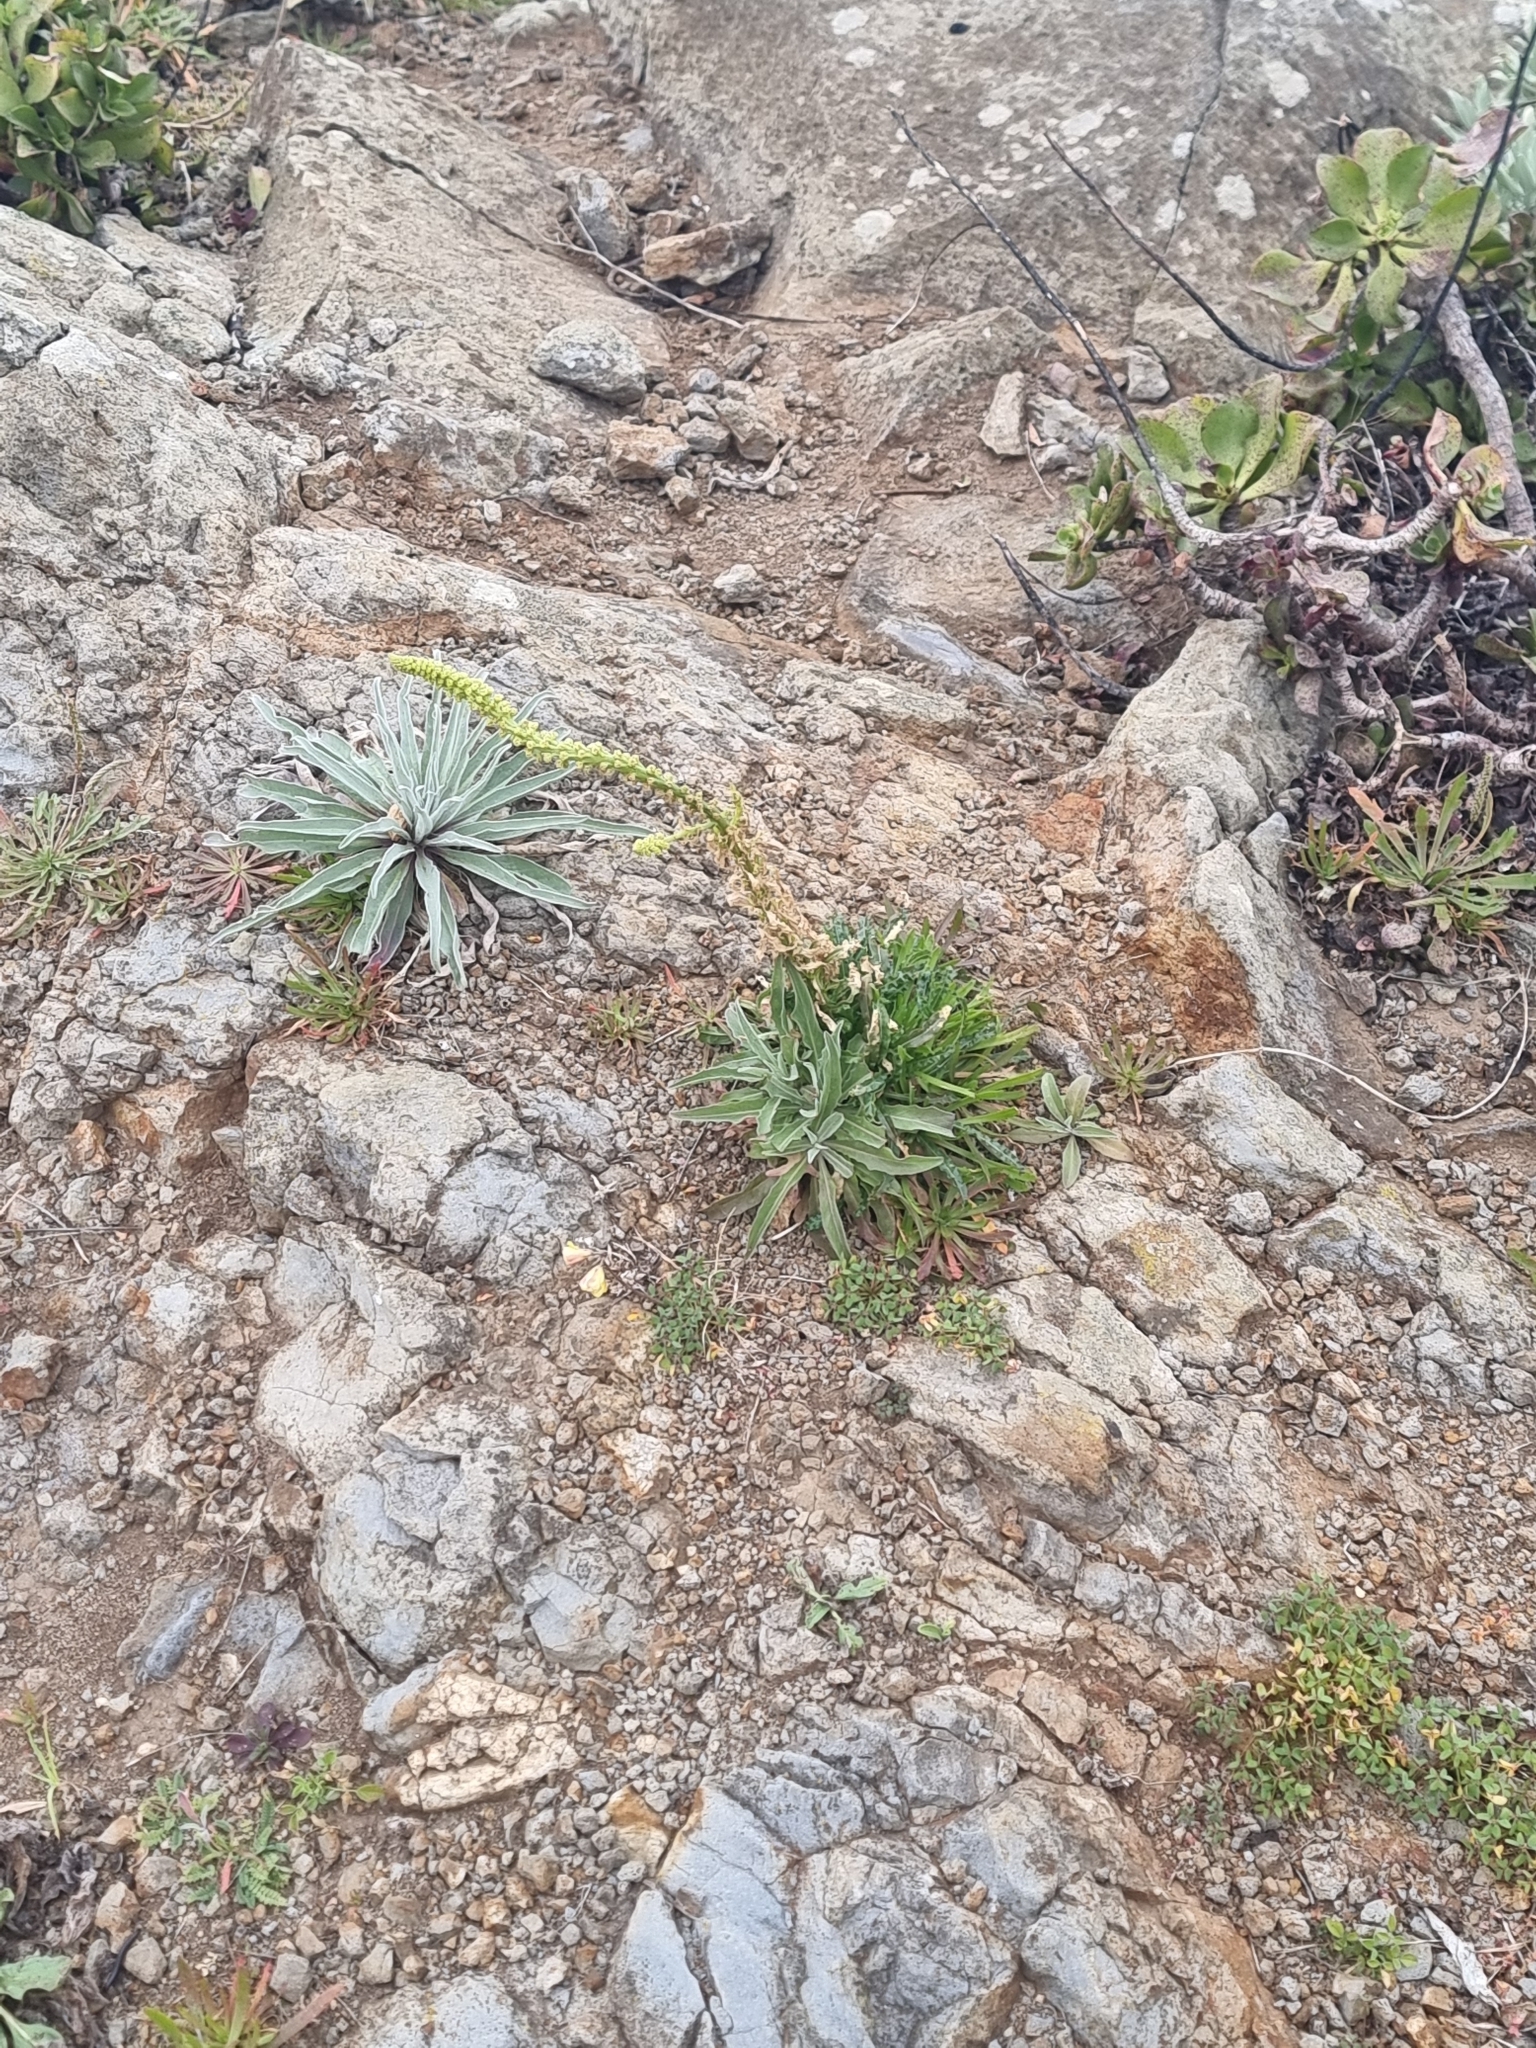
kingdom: Plantae
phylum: Tracheophyta
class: Magnoliopsida
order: Brassicales
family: Resedaceae
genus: Reseda
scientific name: Reseda luteola
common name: Weld
